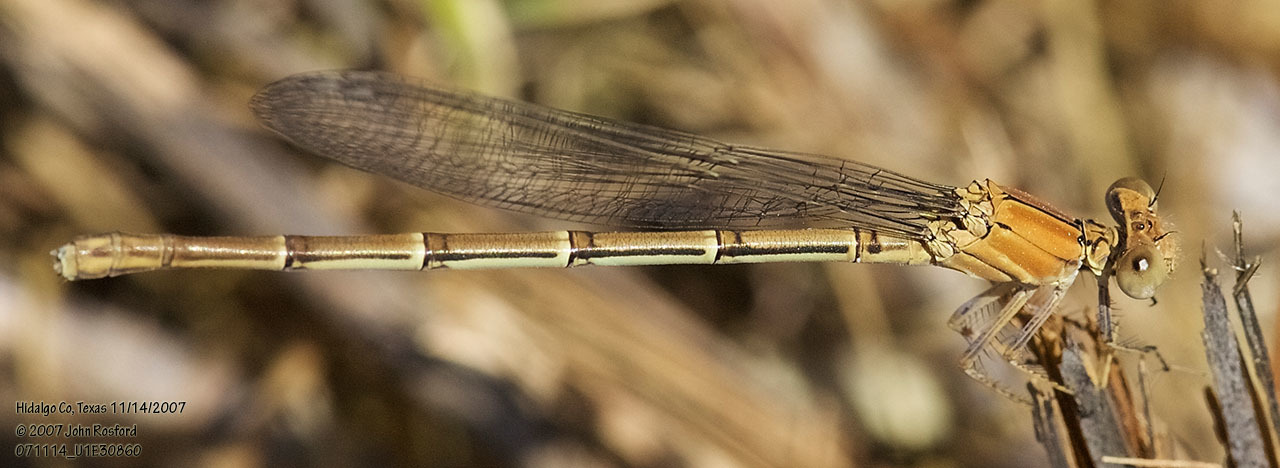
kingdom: Animalia
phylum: Arthropoda
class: Insecta
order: Odonata
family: Coenagrionidae
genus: Argia
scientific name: Argia moesta
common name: Powdered dancer
